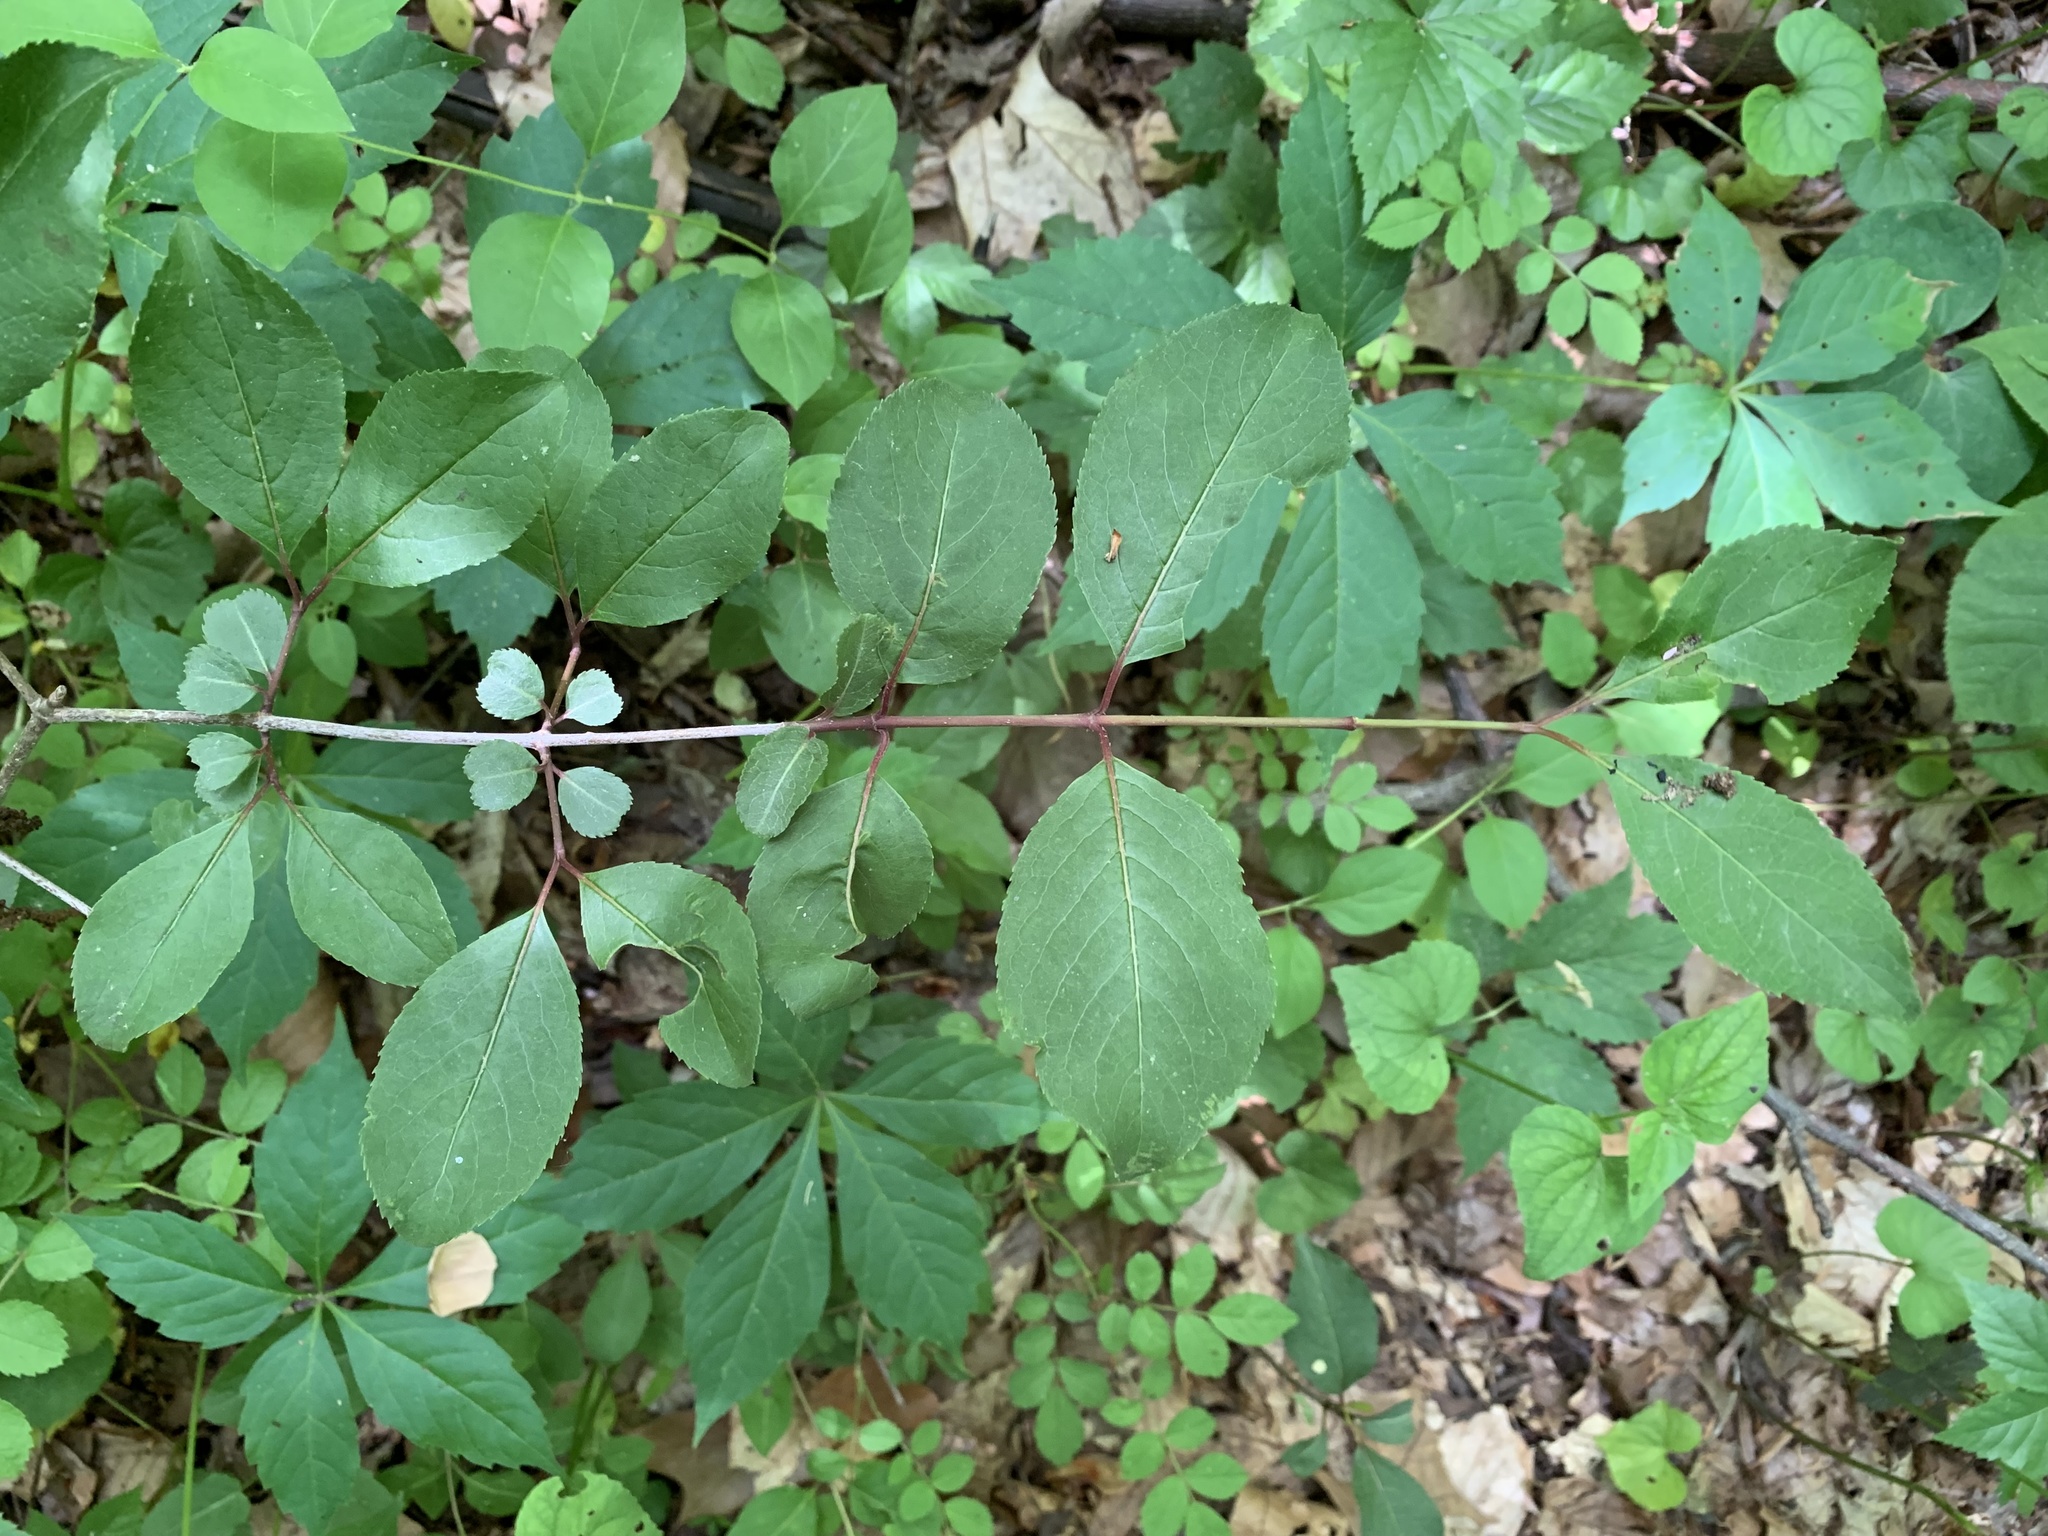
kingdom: Plantae
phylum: Tracheophyta
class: Magnoliopsida
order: Dipsacales
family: Viburnaceae
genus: Viburnum
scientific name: Viburnum prunifolium
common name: Black haw
